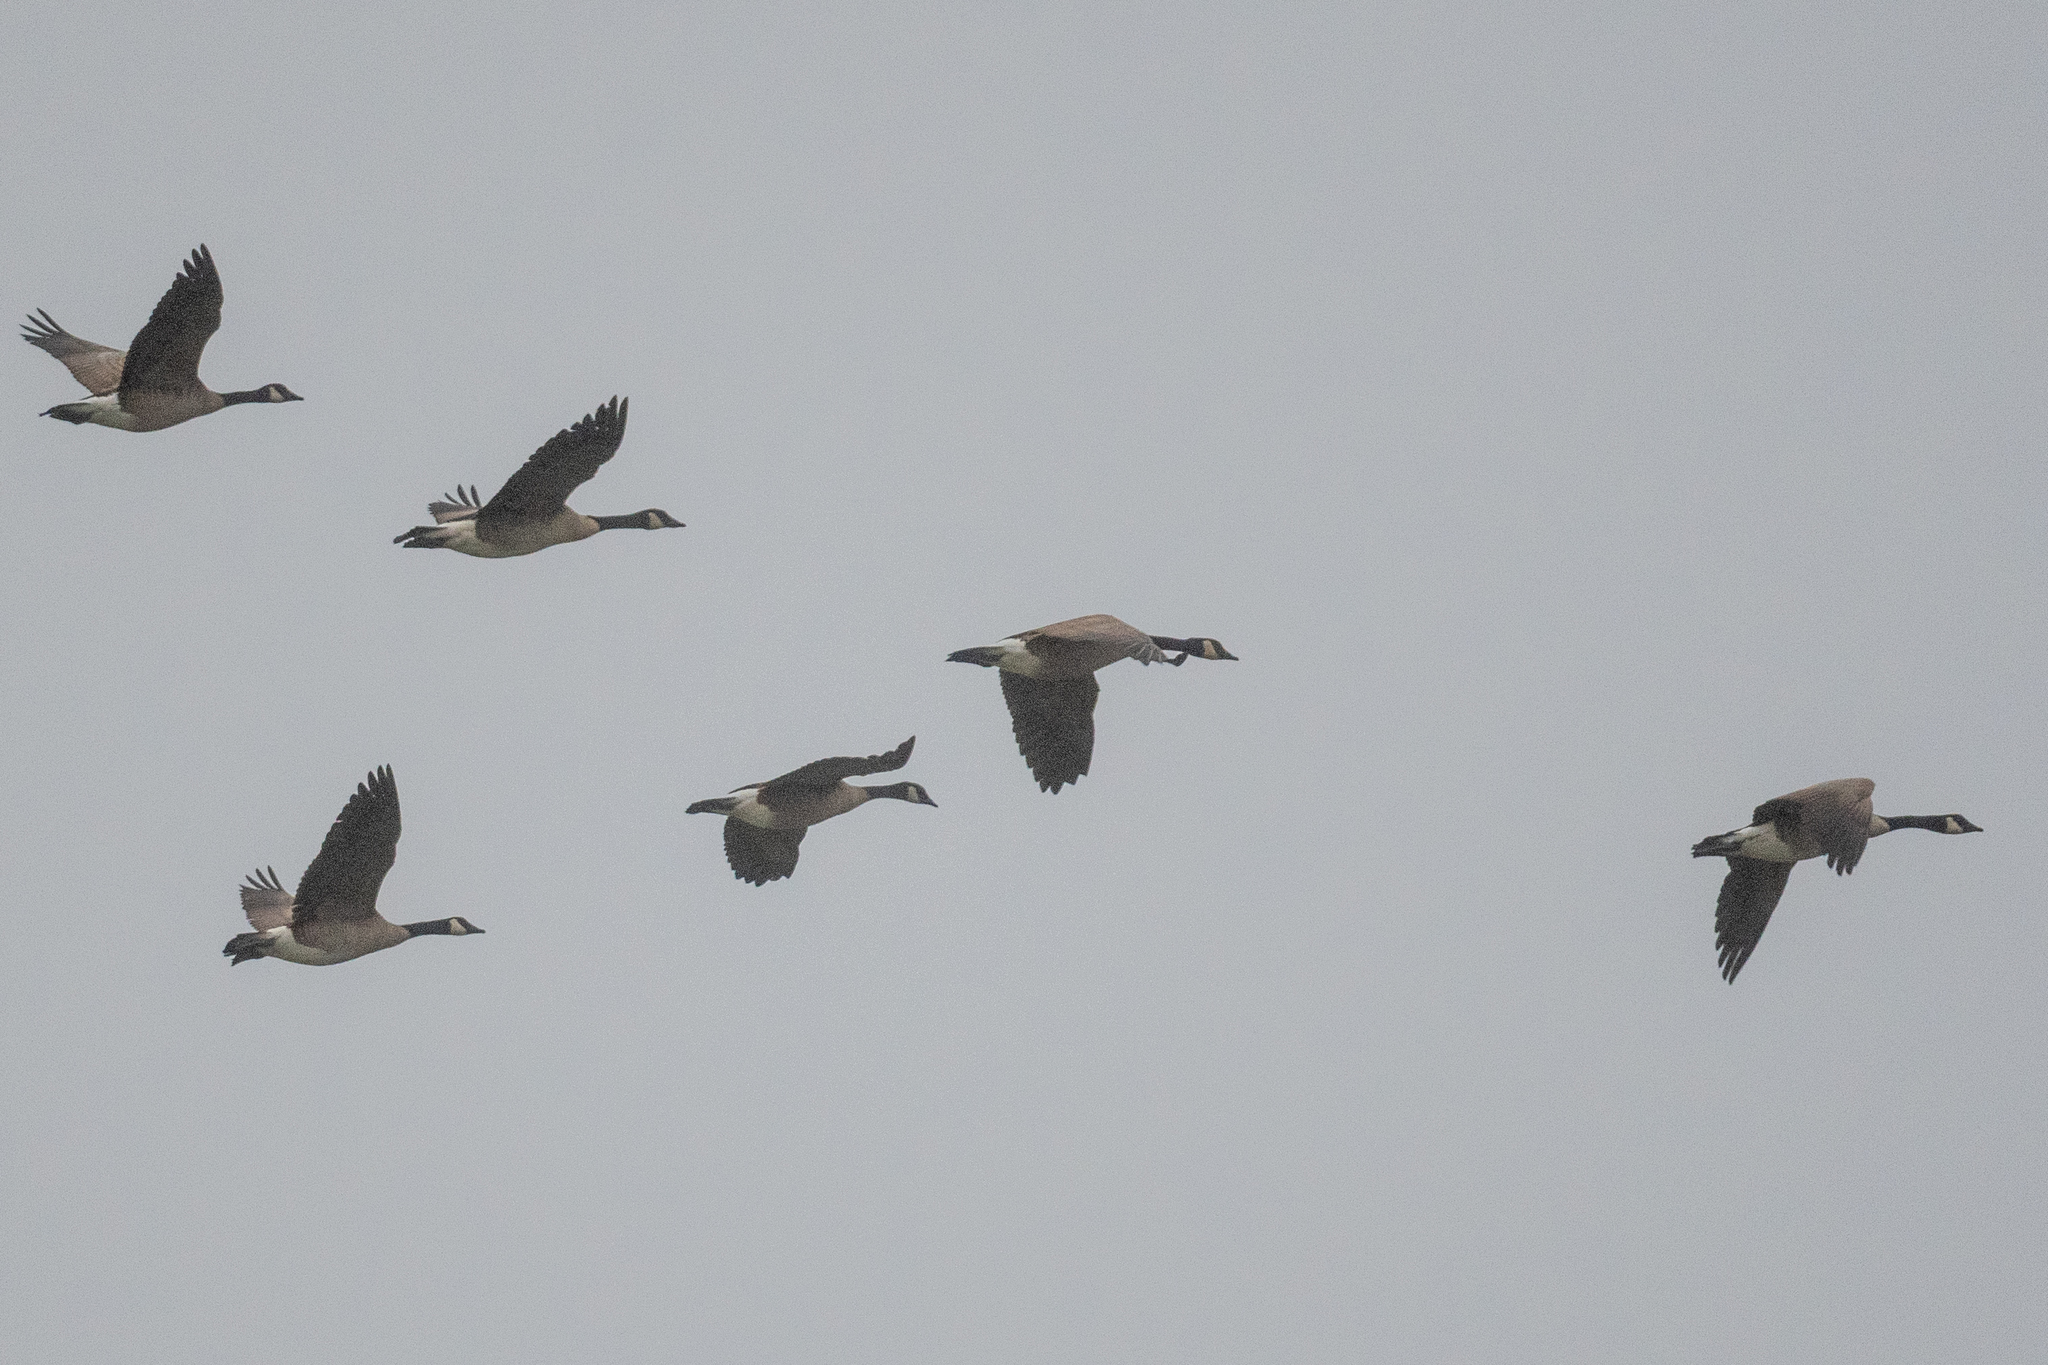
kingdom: Animalia
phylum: Chordata
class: Aves
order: Anseriformes
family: Anatidae
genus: Branta
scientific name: Branta canadensis
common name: Canada goose
